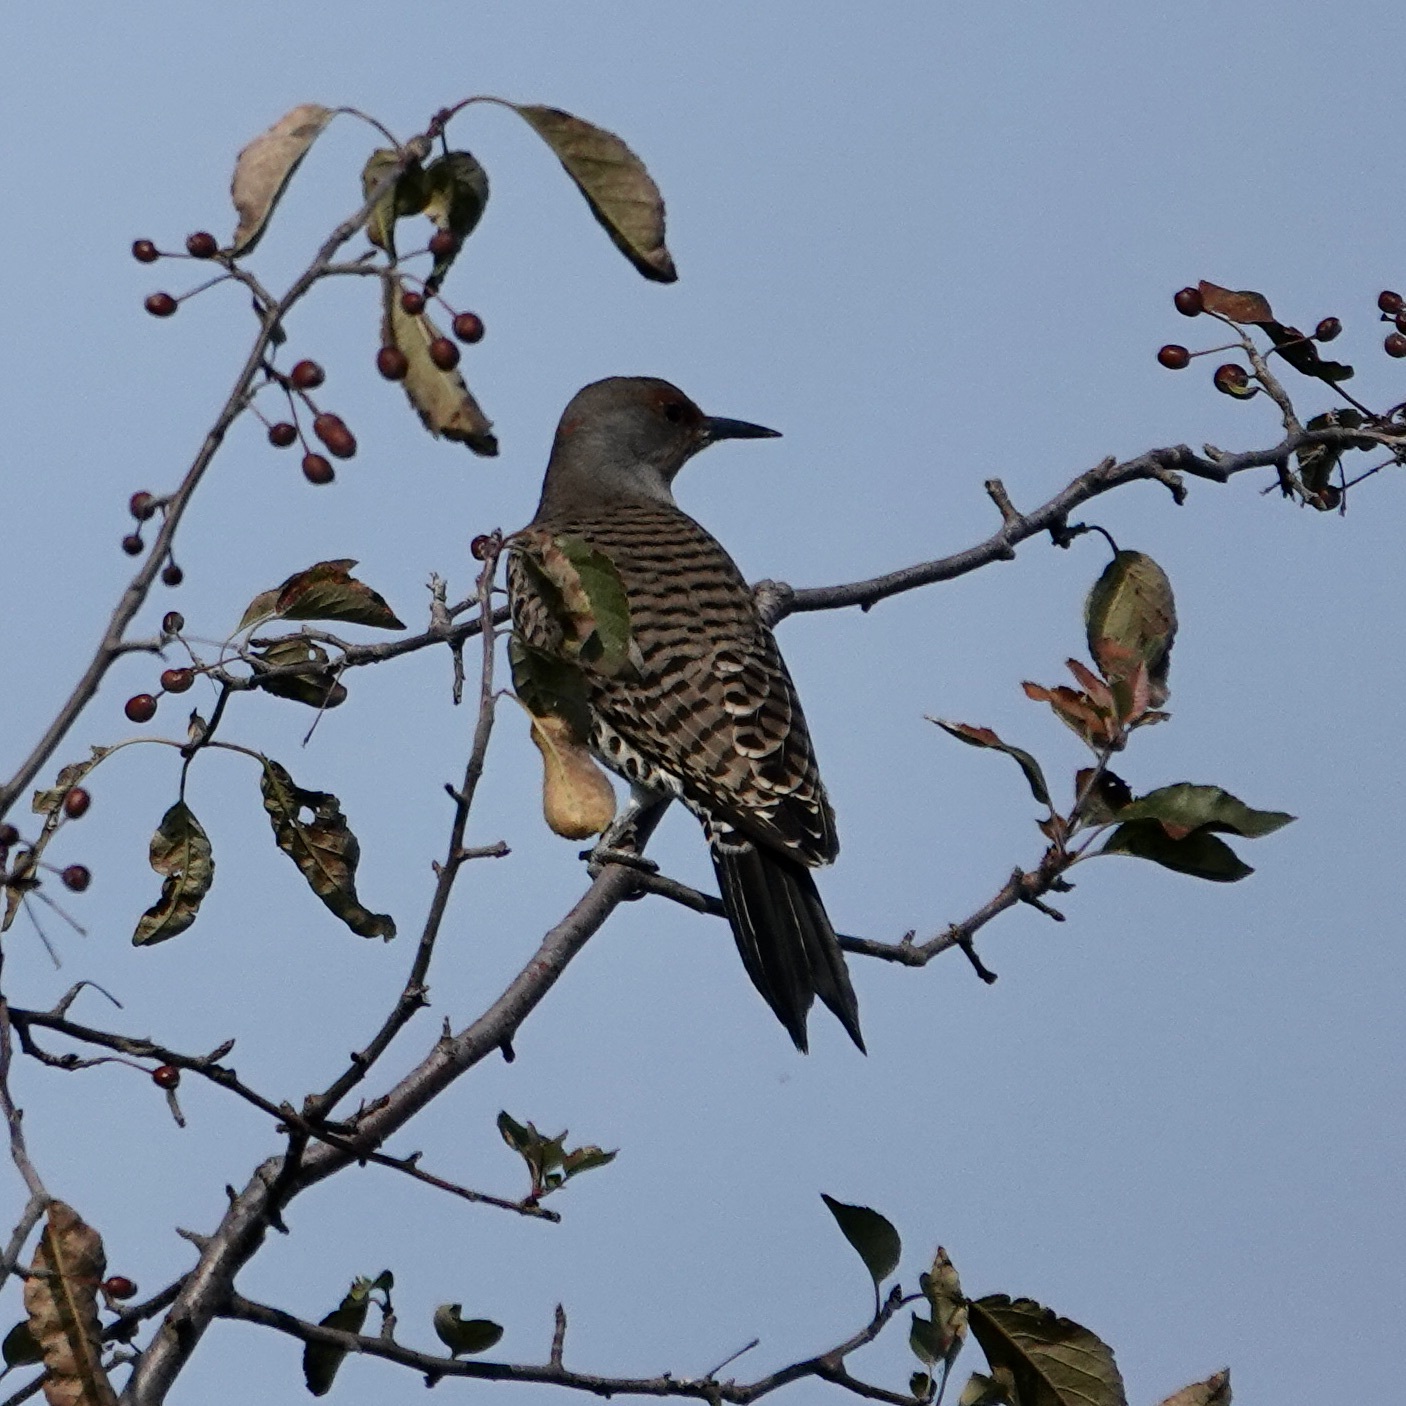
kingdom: Animalia
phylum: Chordata
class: Aves
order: Piciformes
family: Picidae
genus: Colaptes
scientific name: Colaptes auratus
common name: Northern flicker
